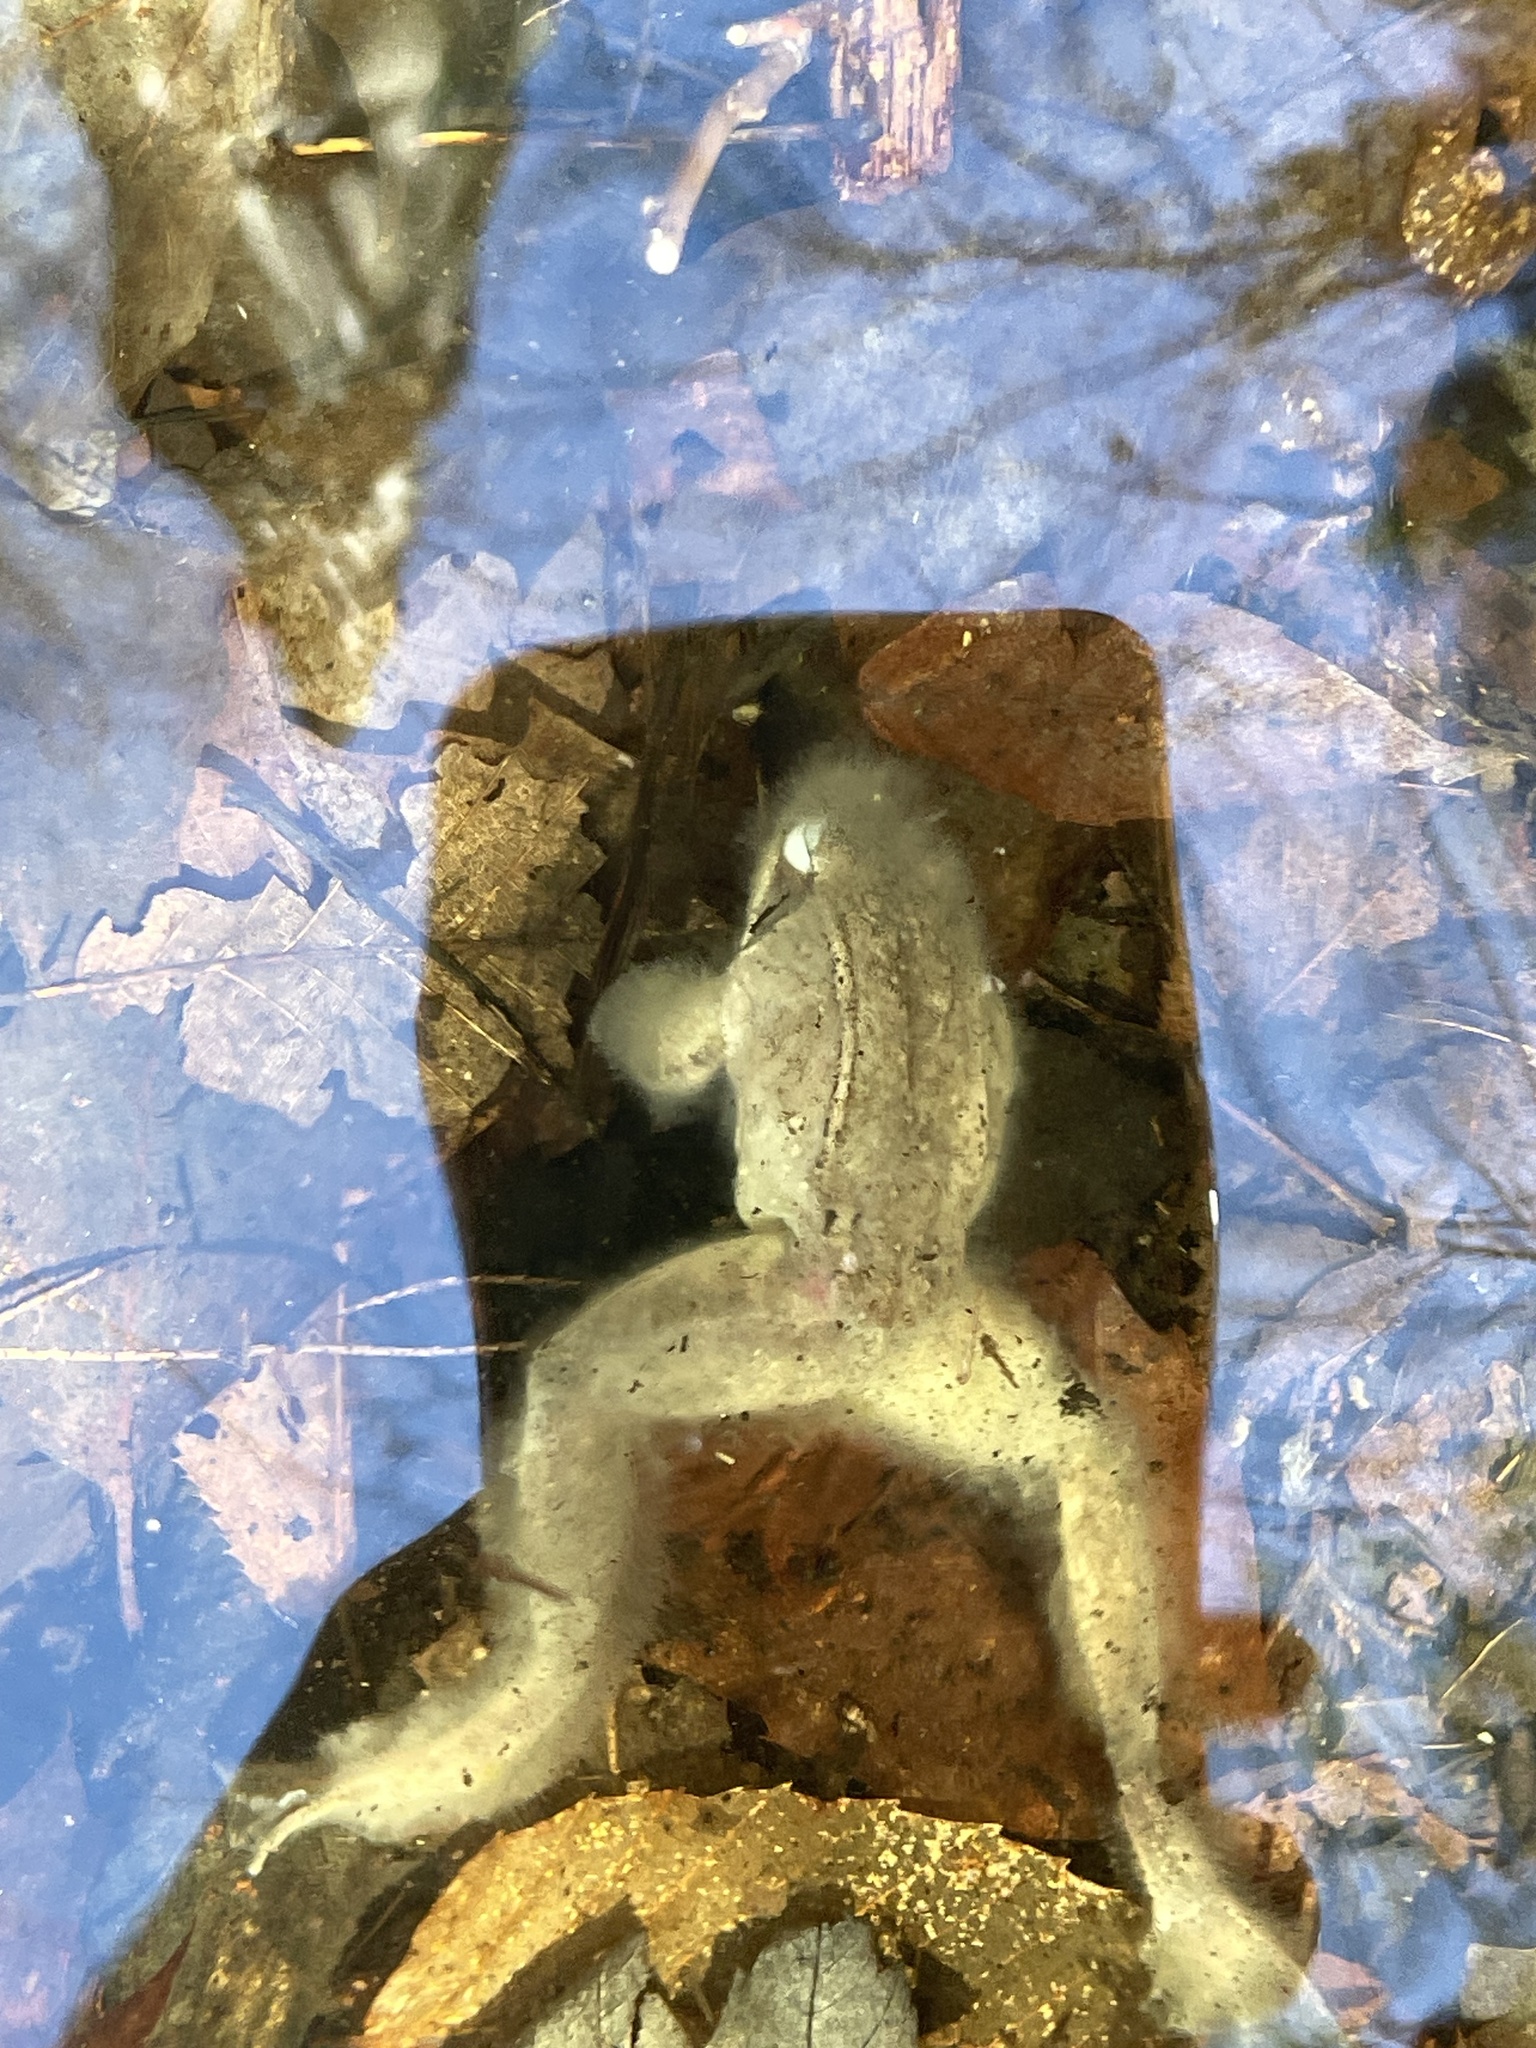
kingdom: Animalia
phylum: Chordata
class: Amphibia
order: Anura
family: Ranidae
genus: Lithobates
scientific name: Lithobates sylvaticus
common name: Wood frog
